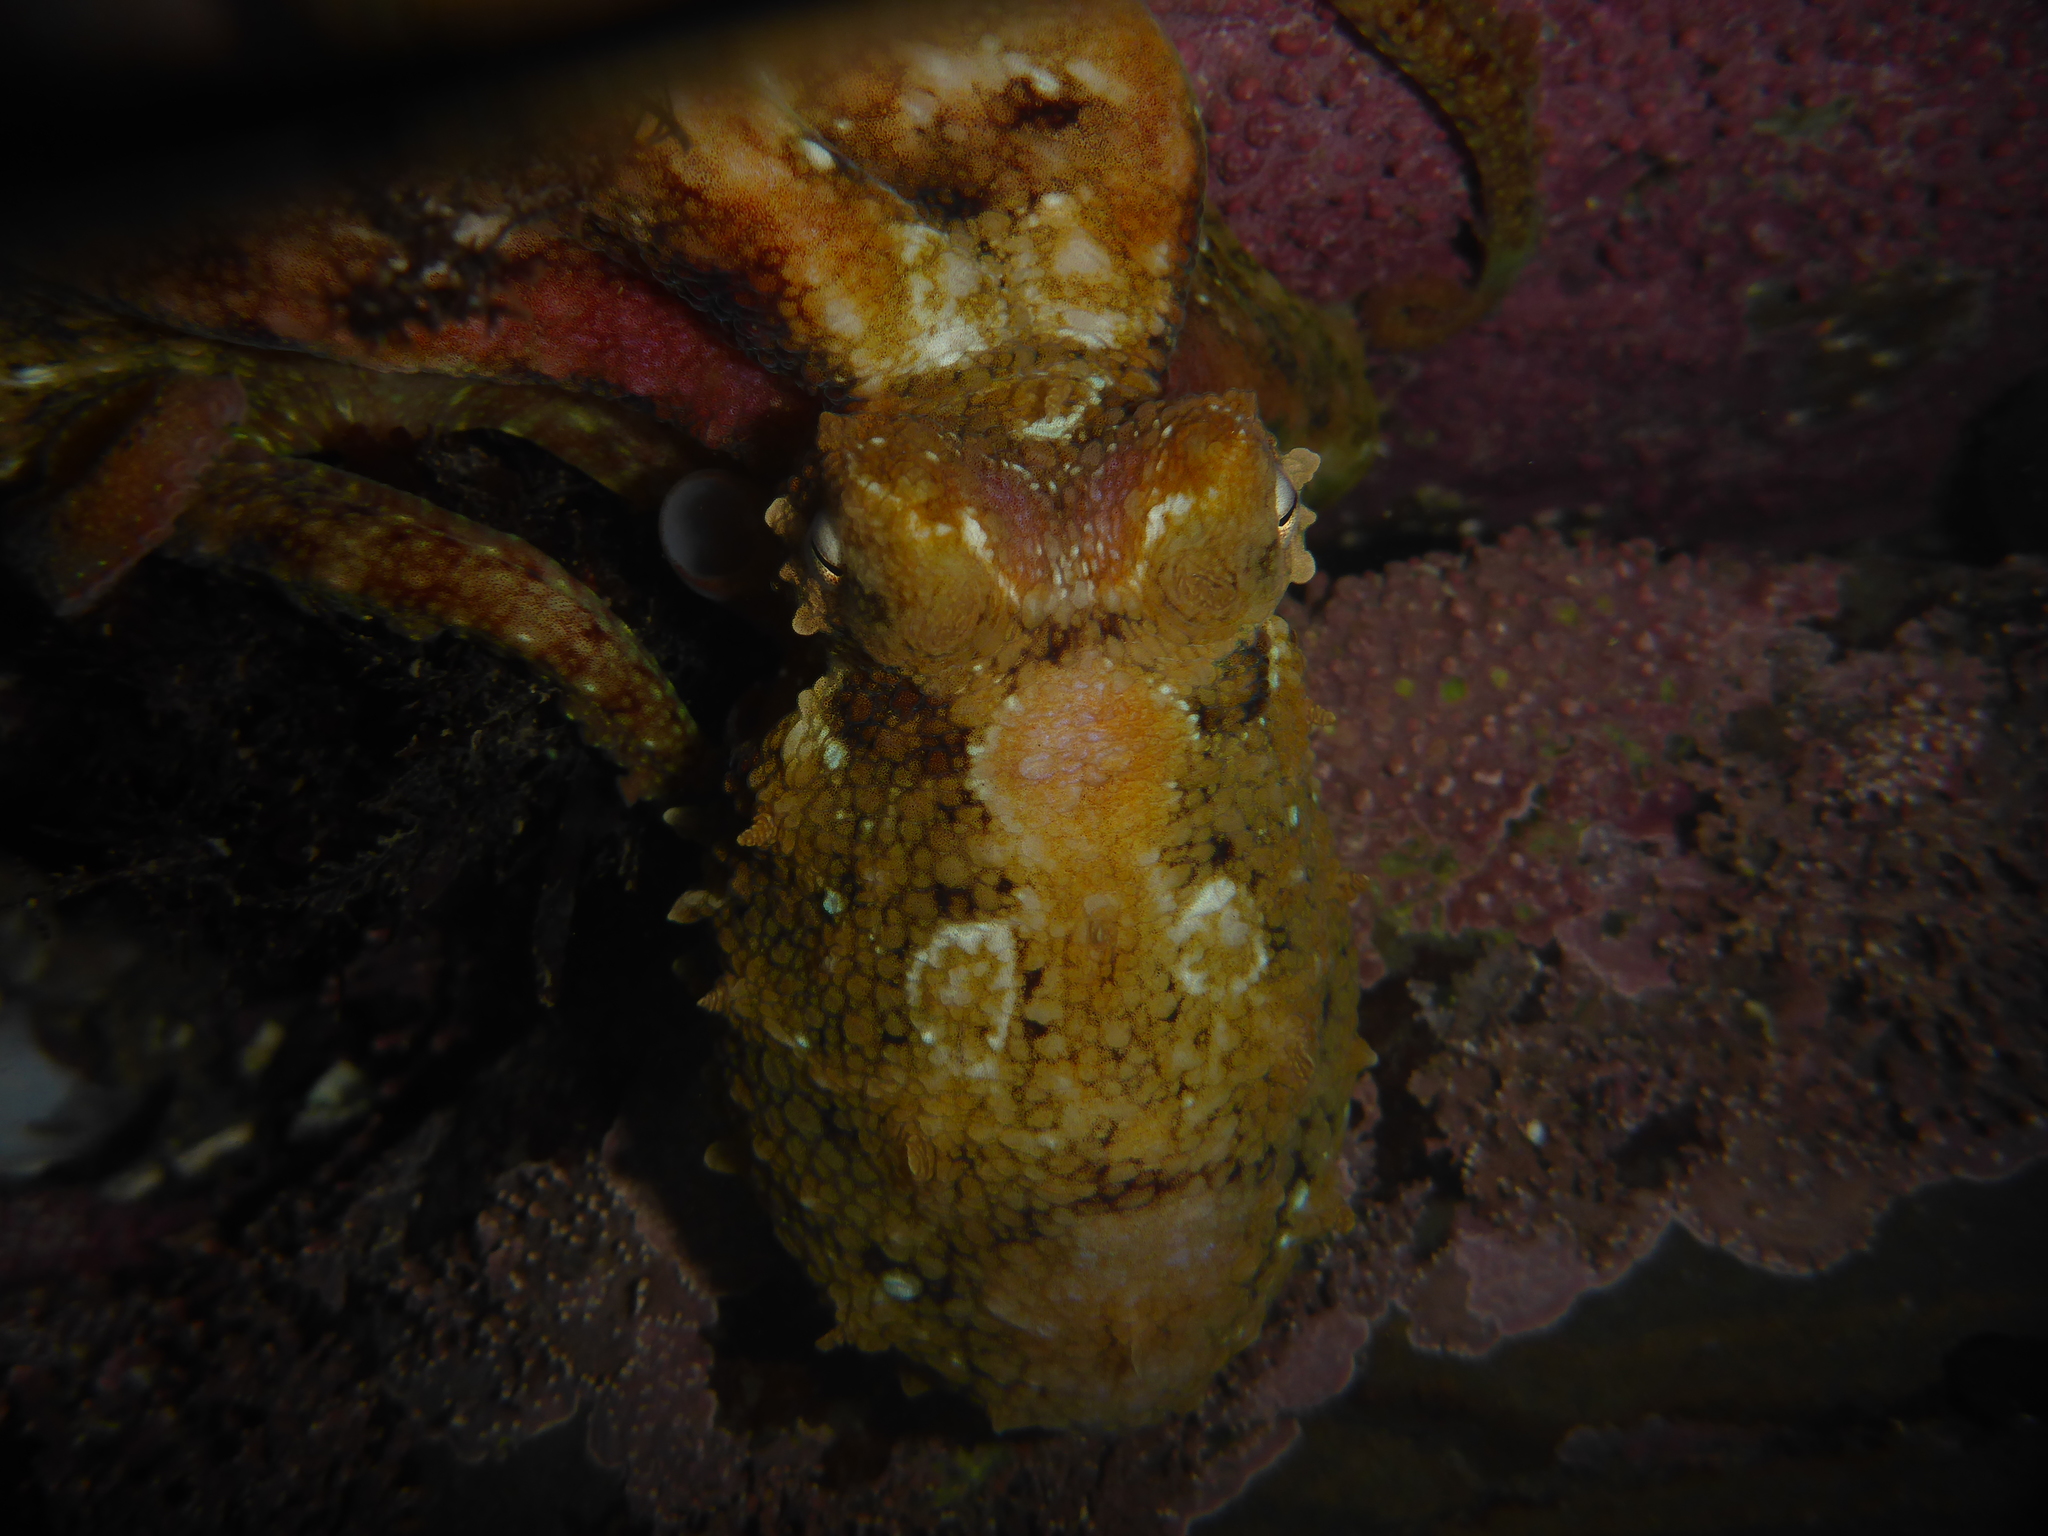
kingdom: Animalia
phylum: Mollusca
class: Cephalopoda
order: Octopoda
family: Octopodidae
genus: Octopus
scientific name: Octopus rubescens
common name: East pacific red octopus
